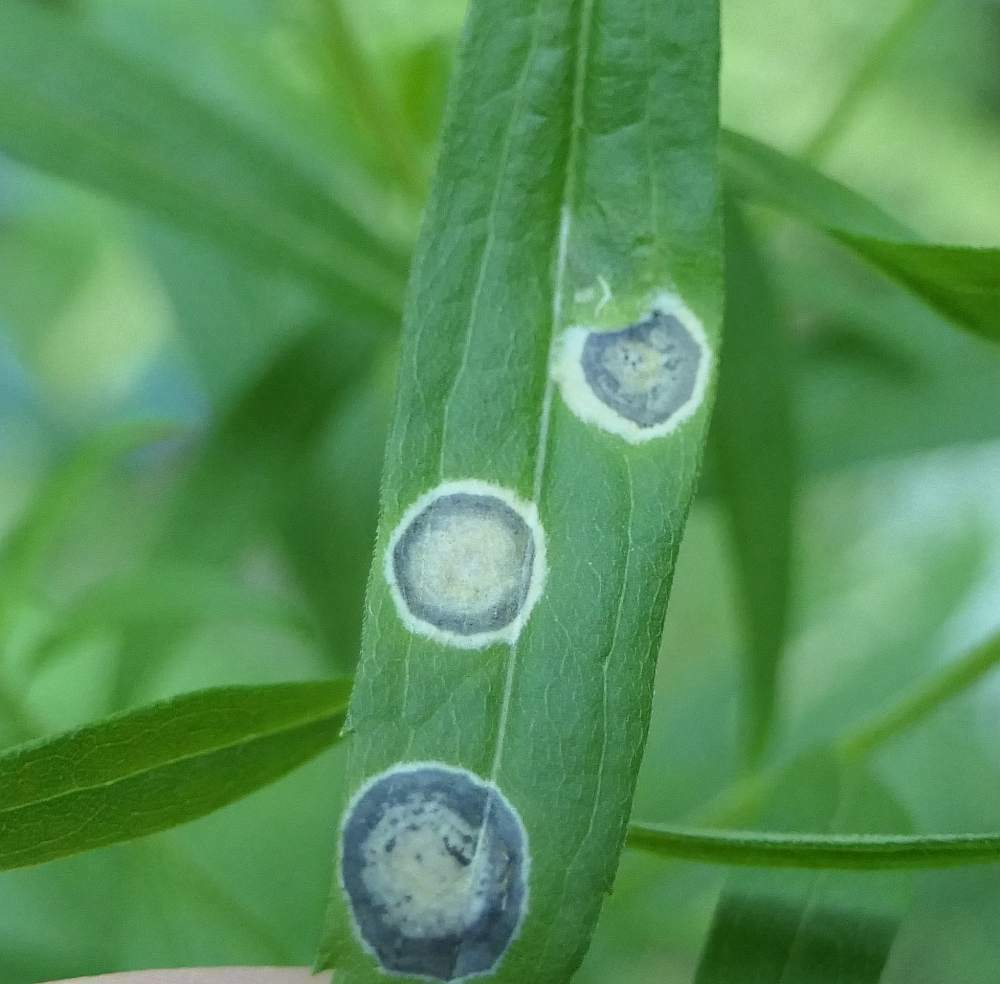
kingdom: Animalia
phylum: Arthropoda
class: Insecta
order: Diptera
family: Cecidomyiidae
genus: Asteromyia
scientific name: Asteromyia carbonifera
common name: Carbonifera goldenrod gall midge
